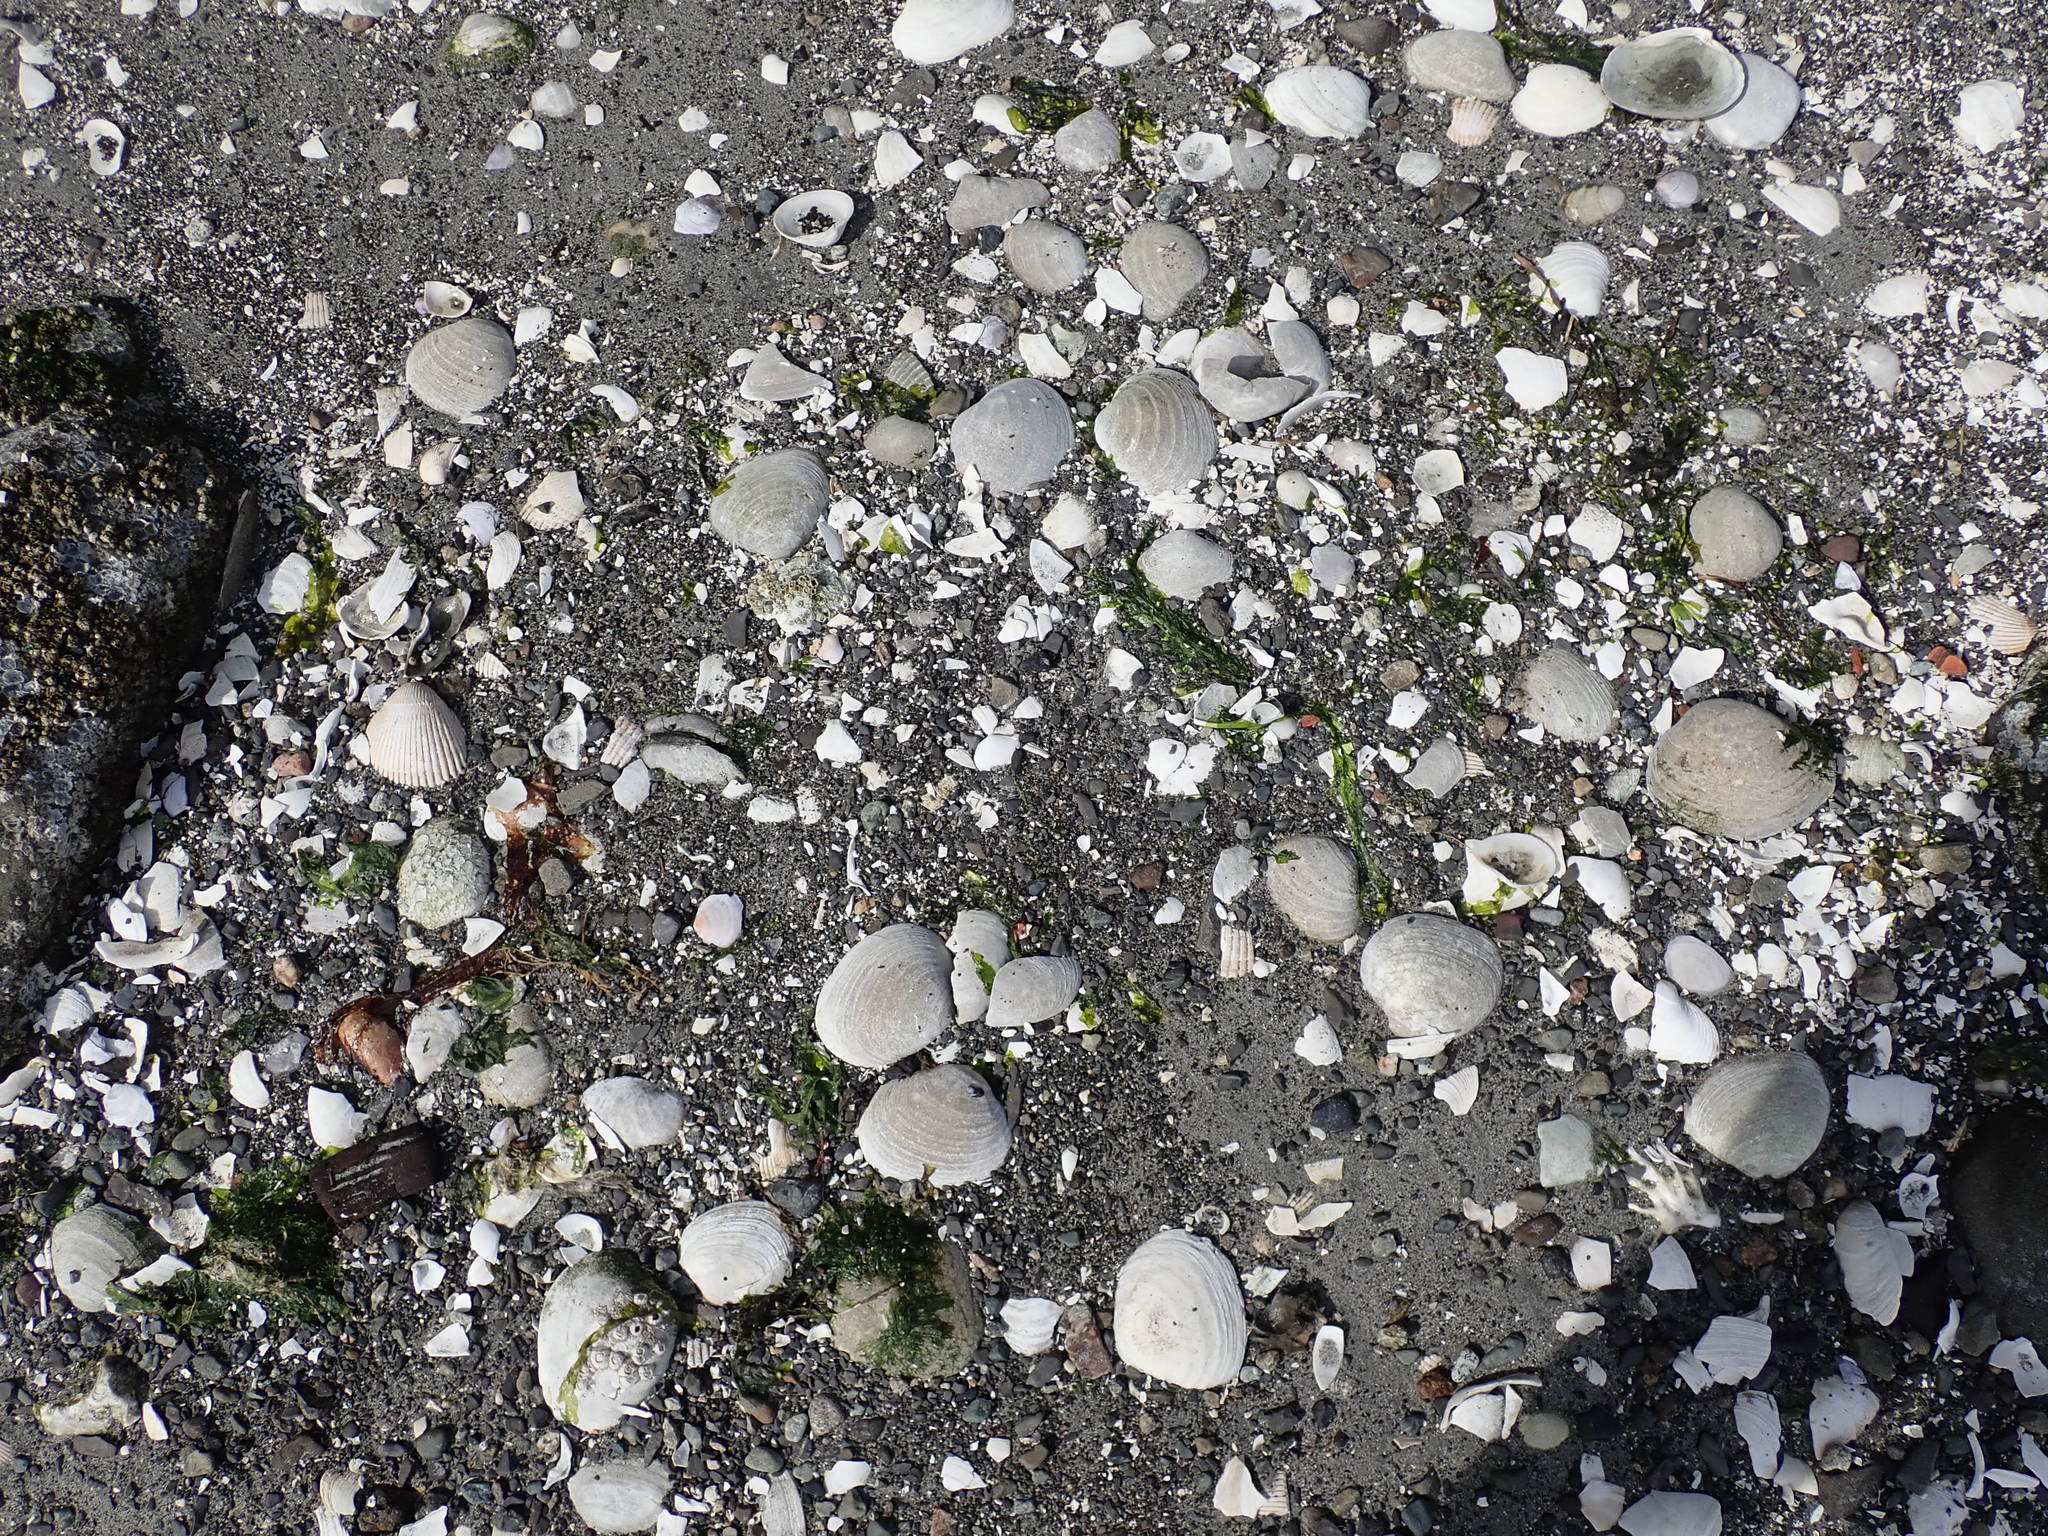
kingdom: Animalia
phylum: Mollusca
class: Bivalvia
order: Venerida
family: Veneridae
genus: Saxidomus
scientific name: Saxidomus gigantea
